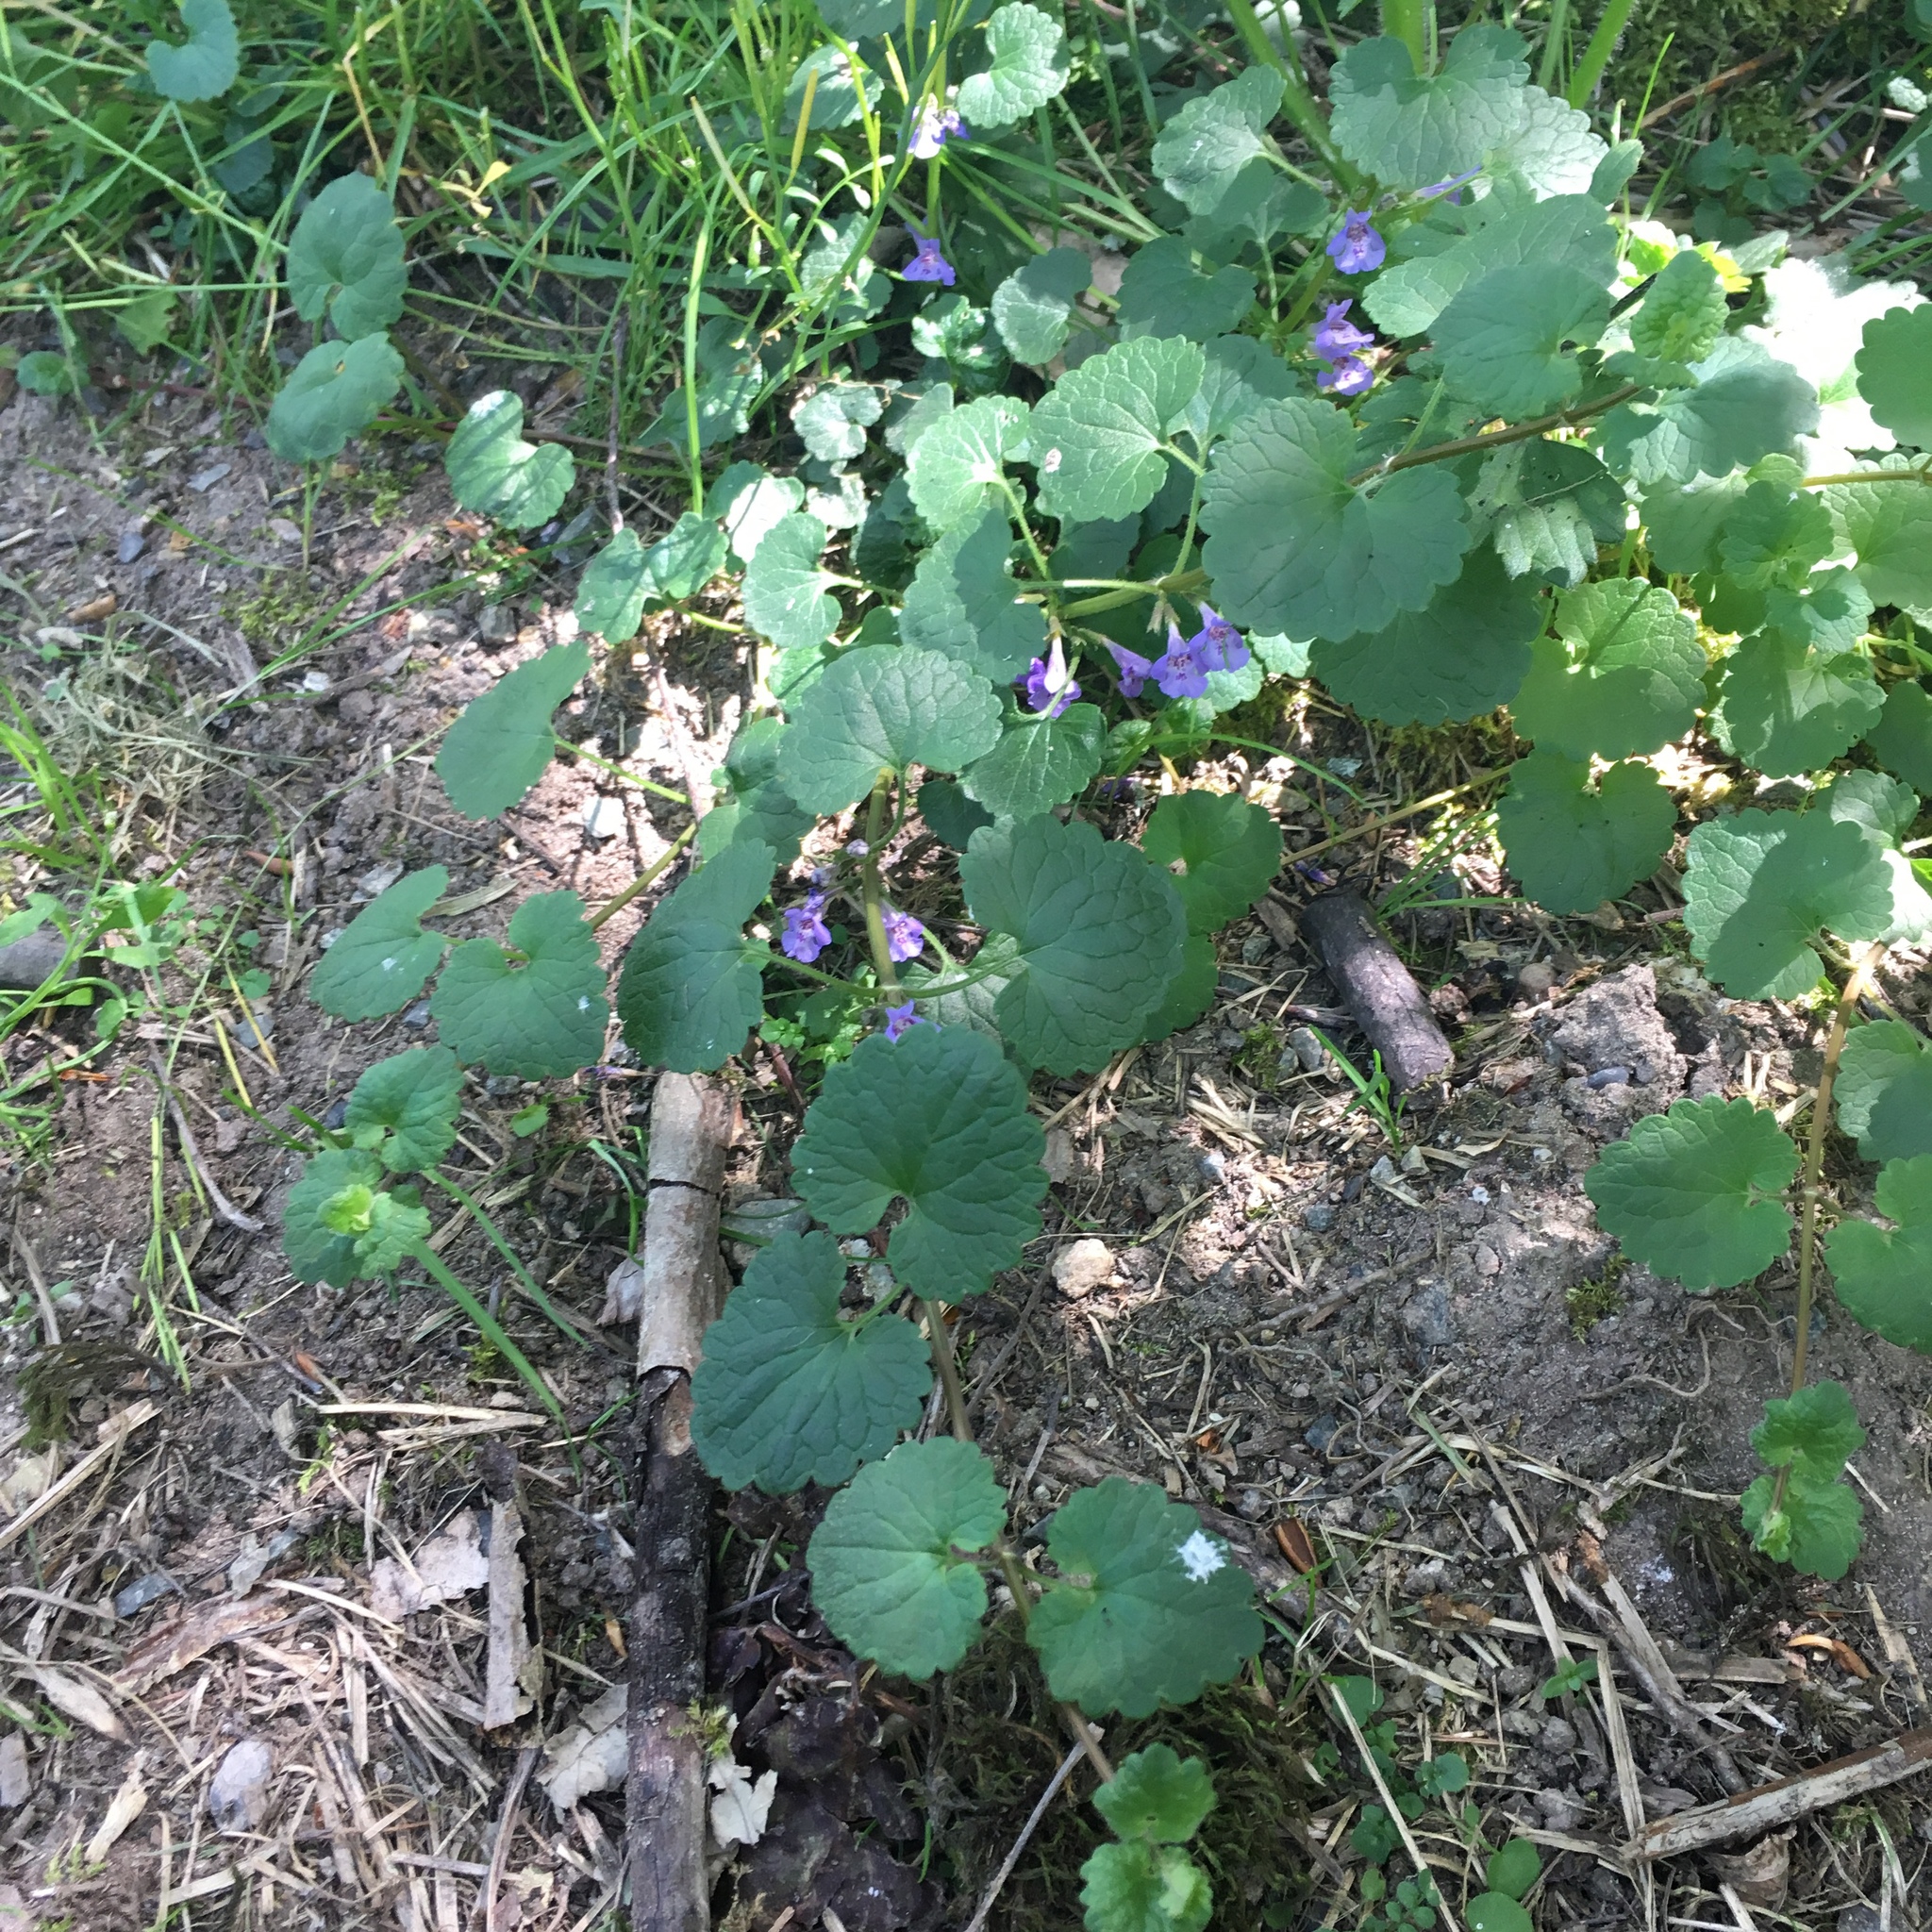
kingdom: Plantae
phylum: Tracheophyta
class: Magnoliopsida
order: Lamiales
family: Lamiaceae
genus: Glechoma
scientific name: Glechoma hederacea
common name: Ground ivy
